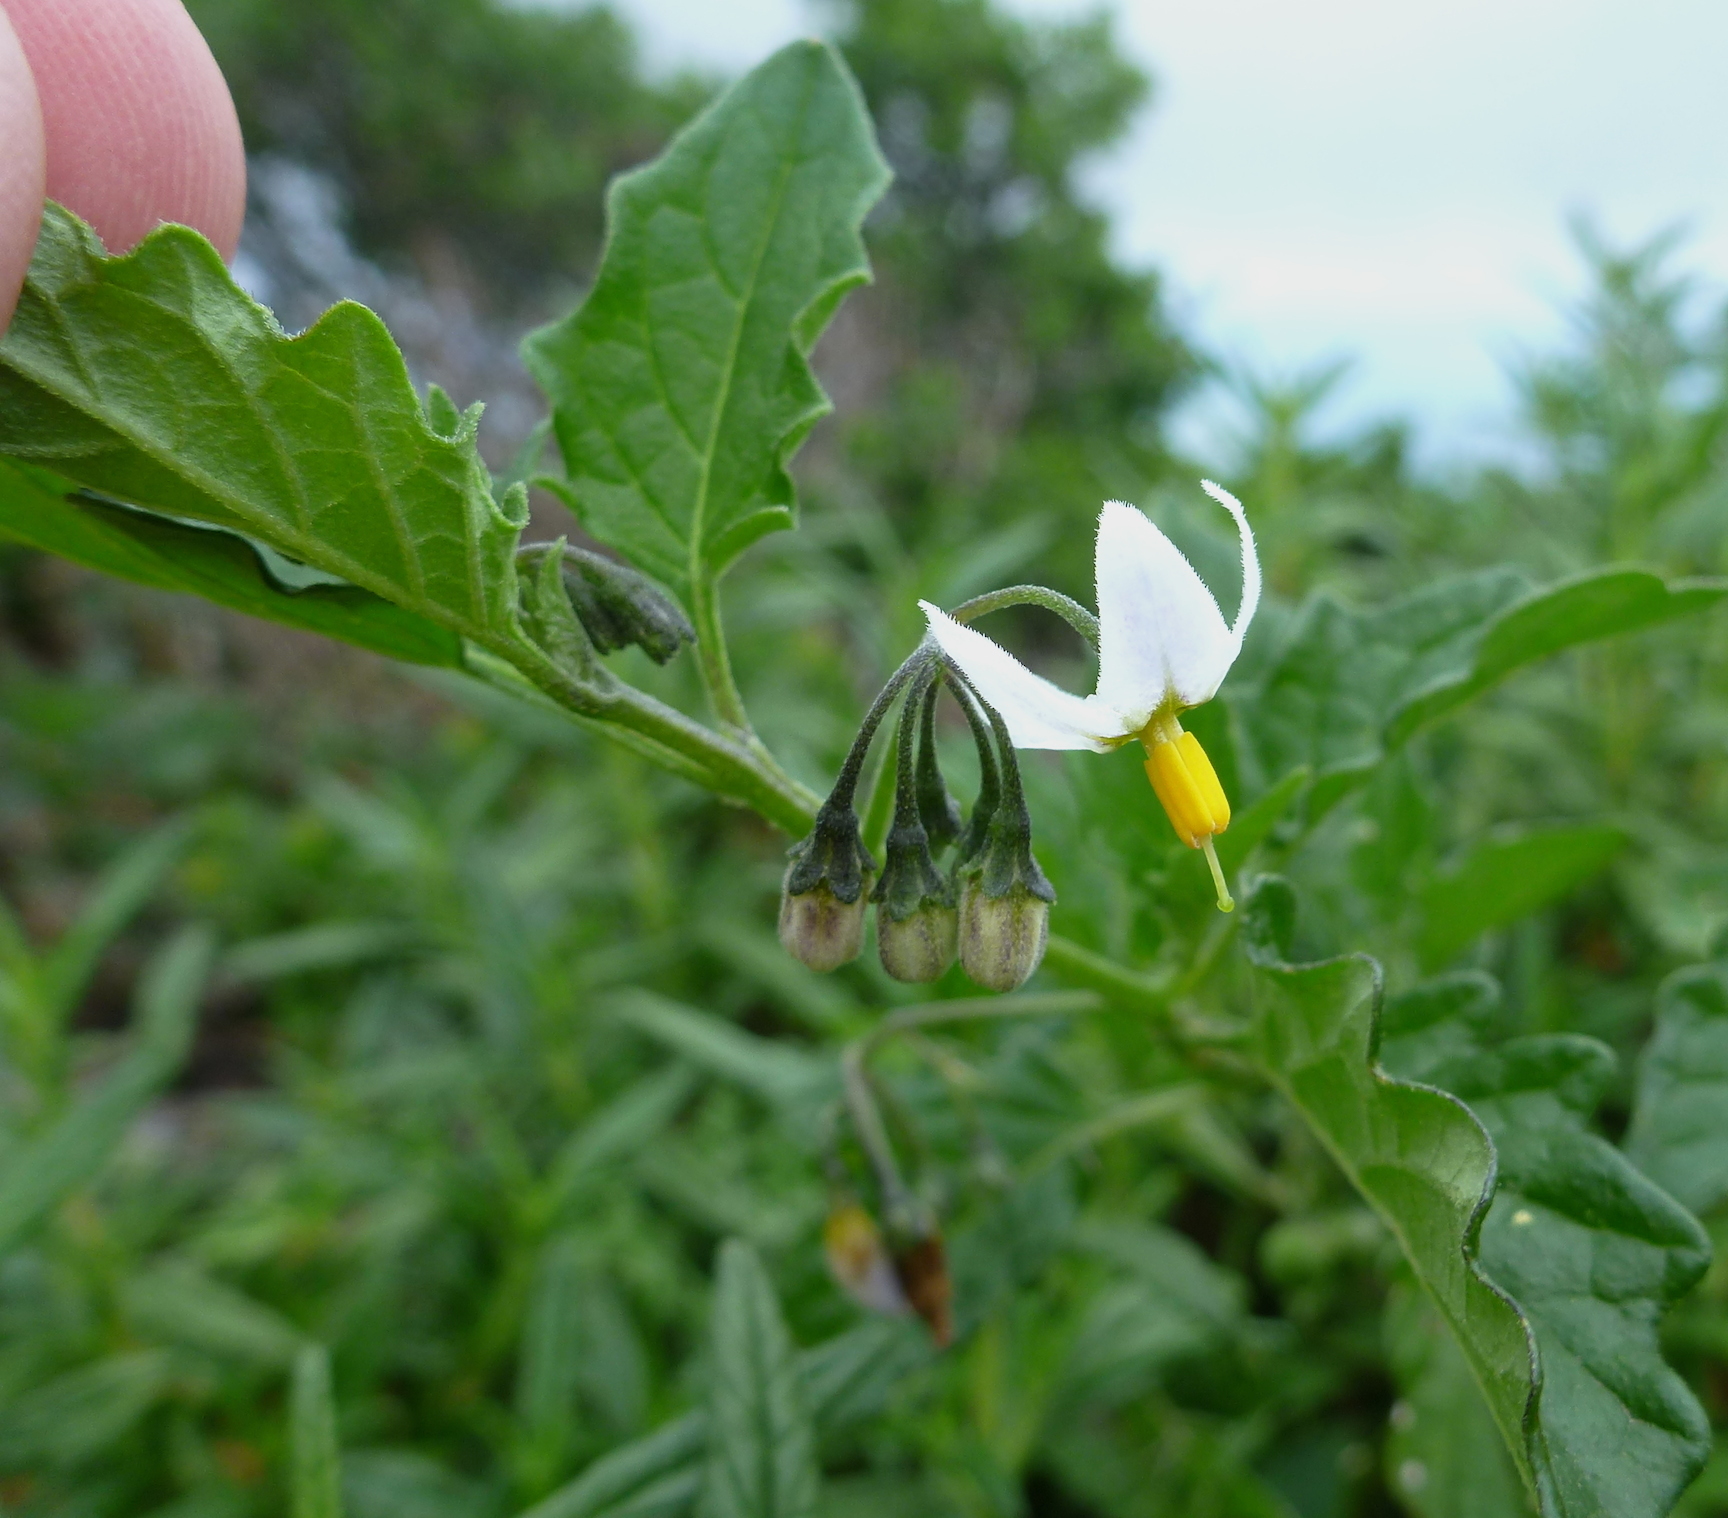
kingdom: Plantae
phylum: Tracheophyta
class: Magnoliopsida
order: Solanales
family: Solanaceae
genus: Solanum
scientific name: Solanum furcatum
